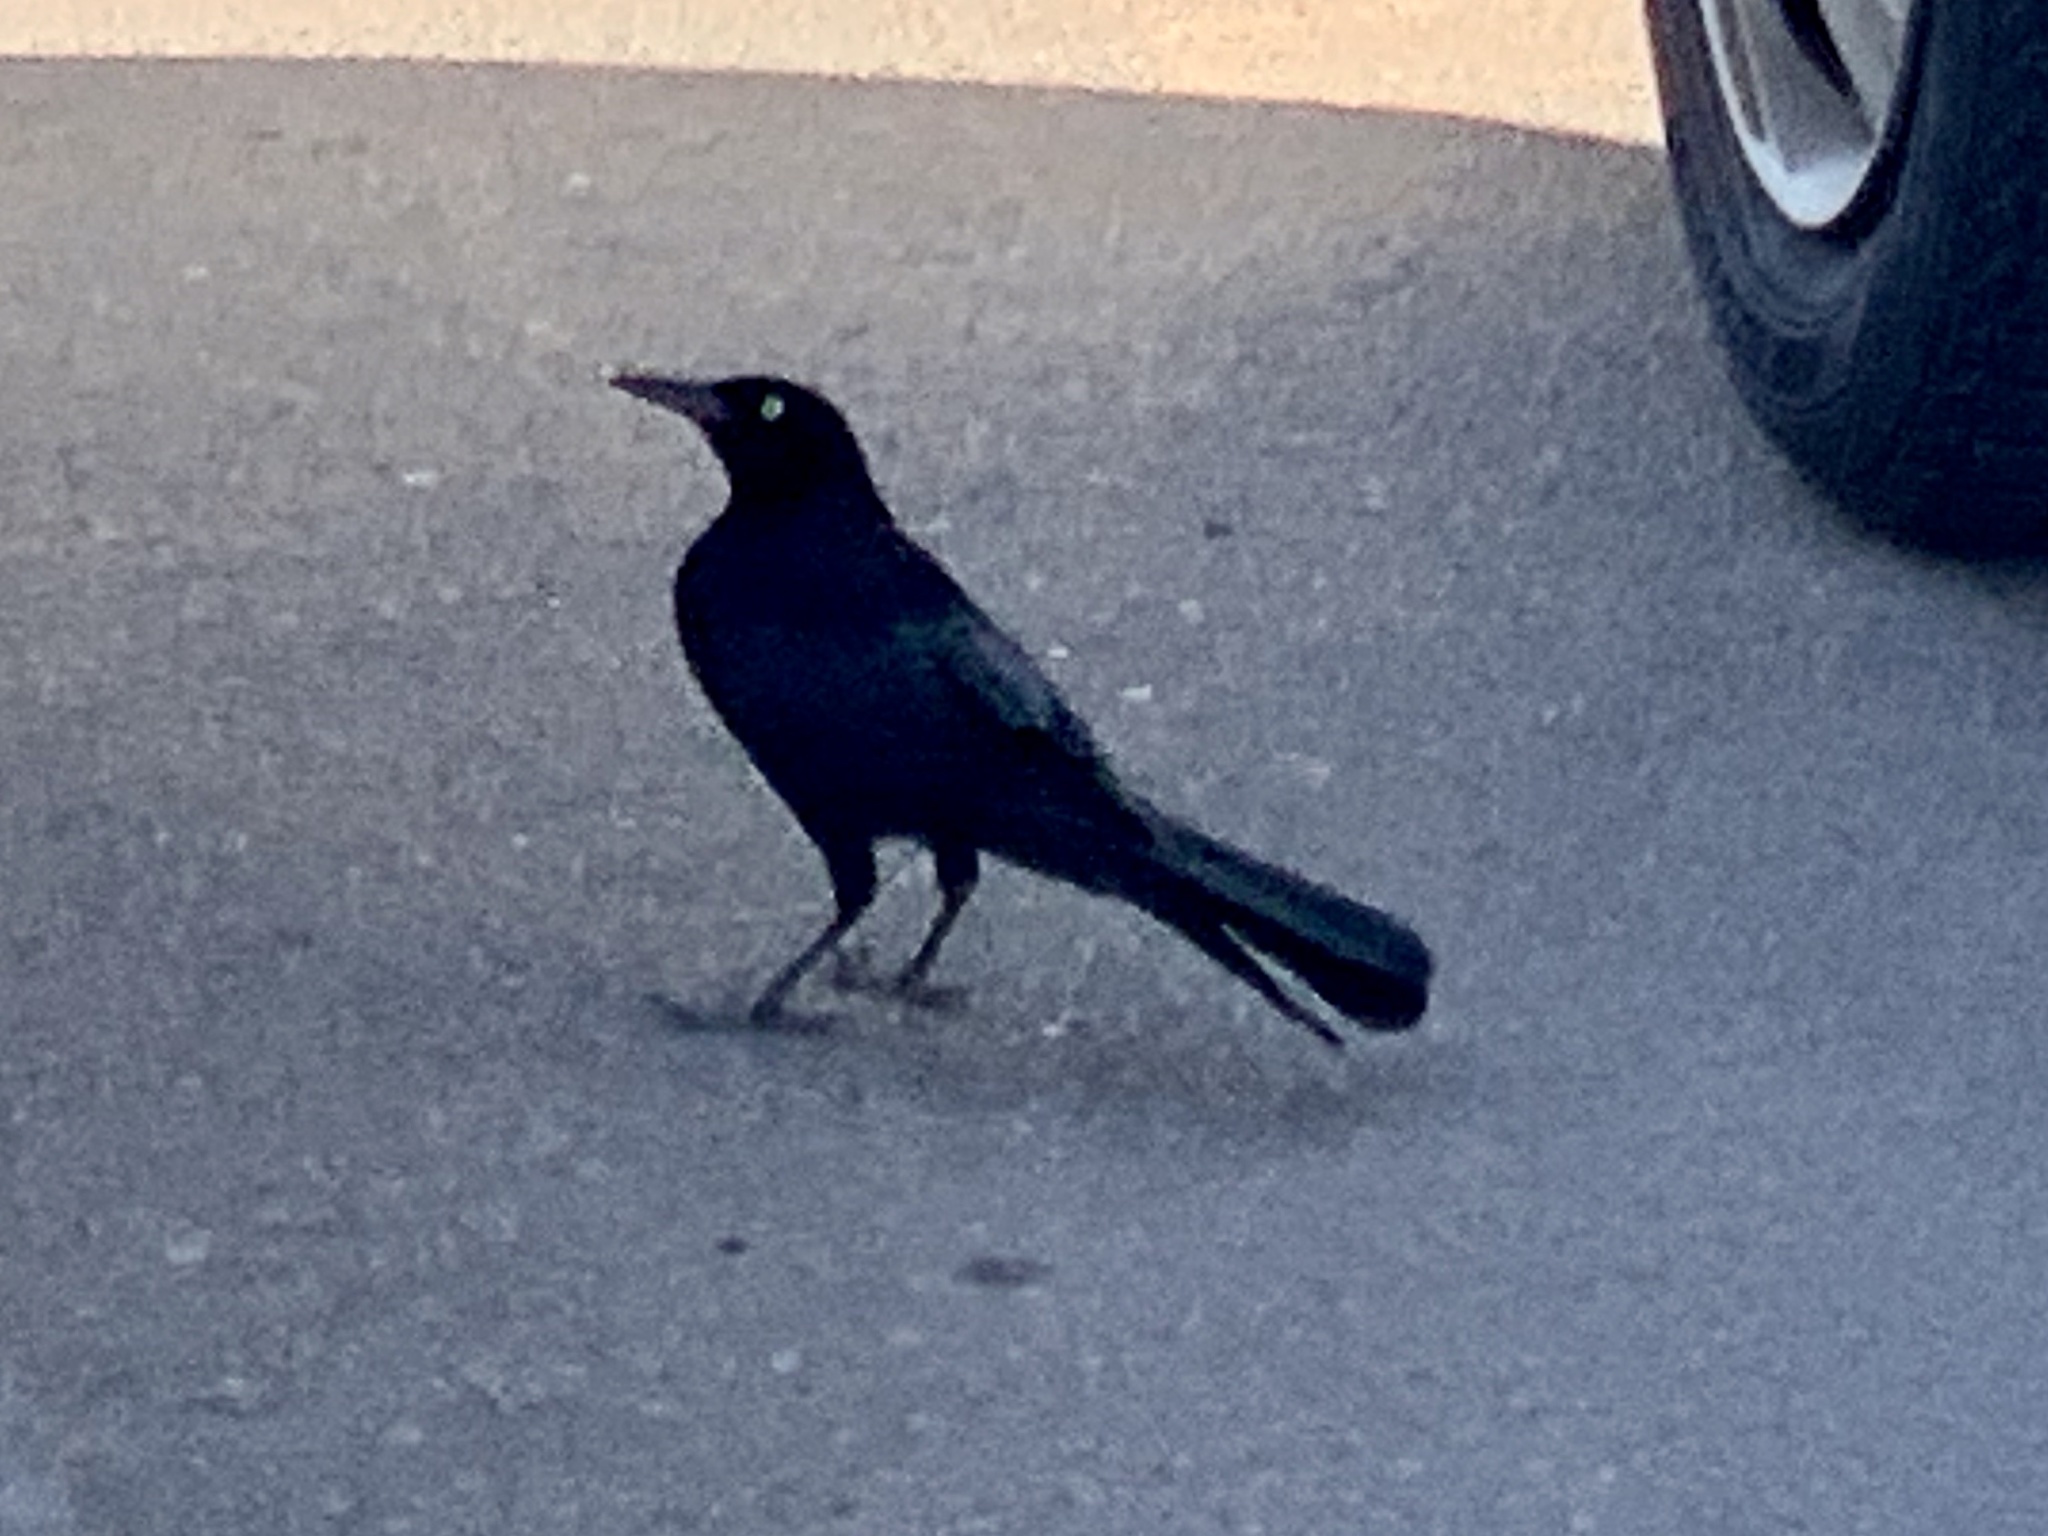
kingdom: Animalia
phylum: Chordata
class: Aves
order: Passeriformes
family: Icteridae
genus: Quiscalus
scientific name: Quiscalus mexicanus
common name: Great-tailed grackle
